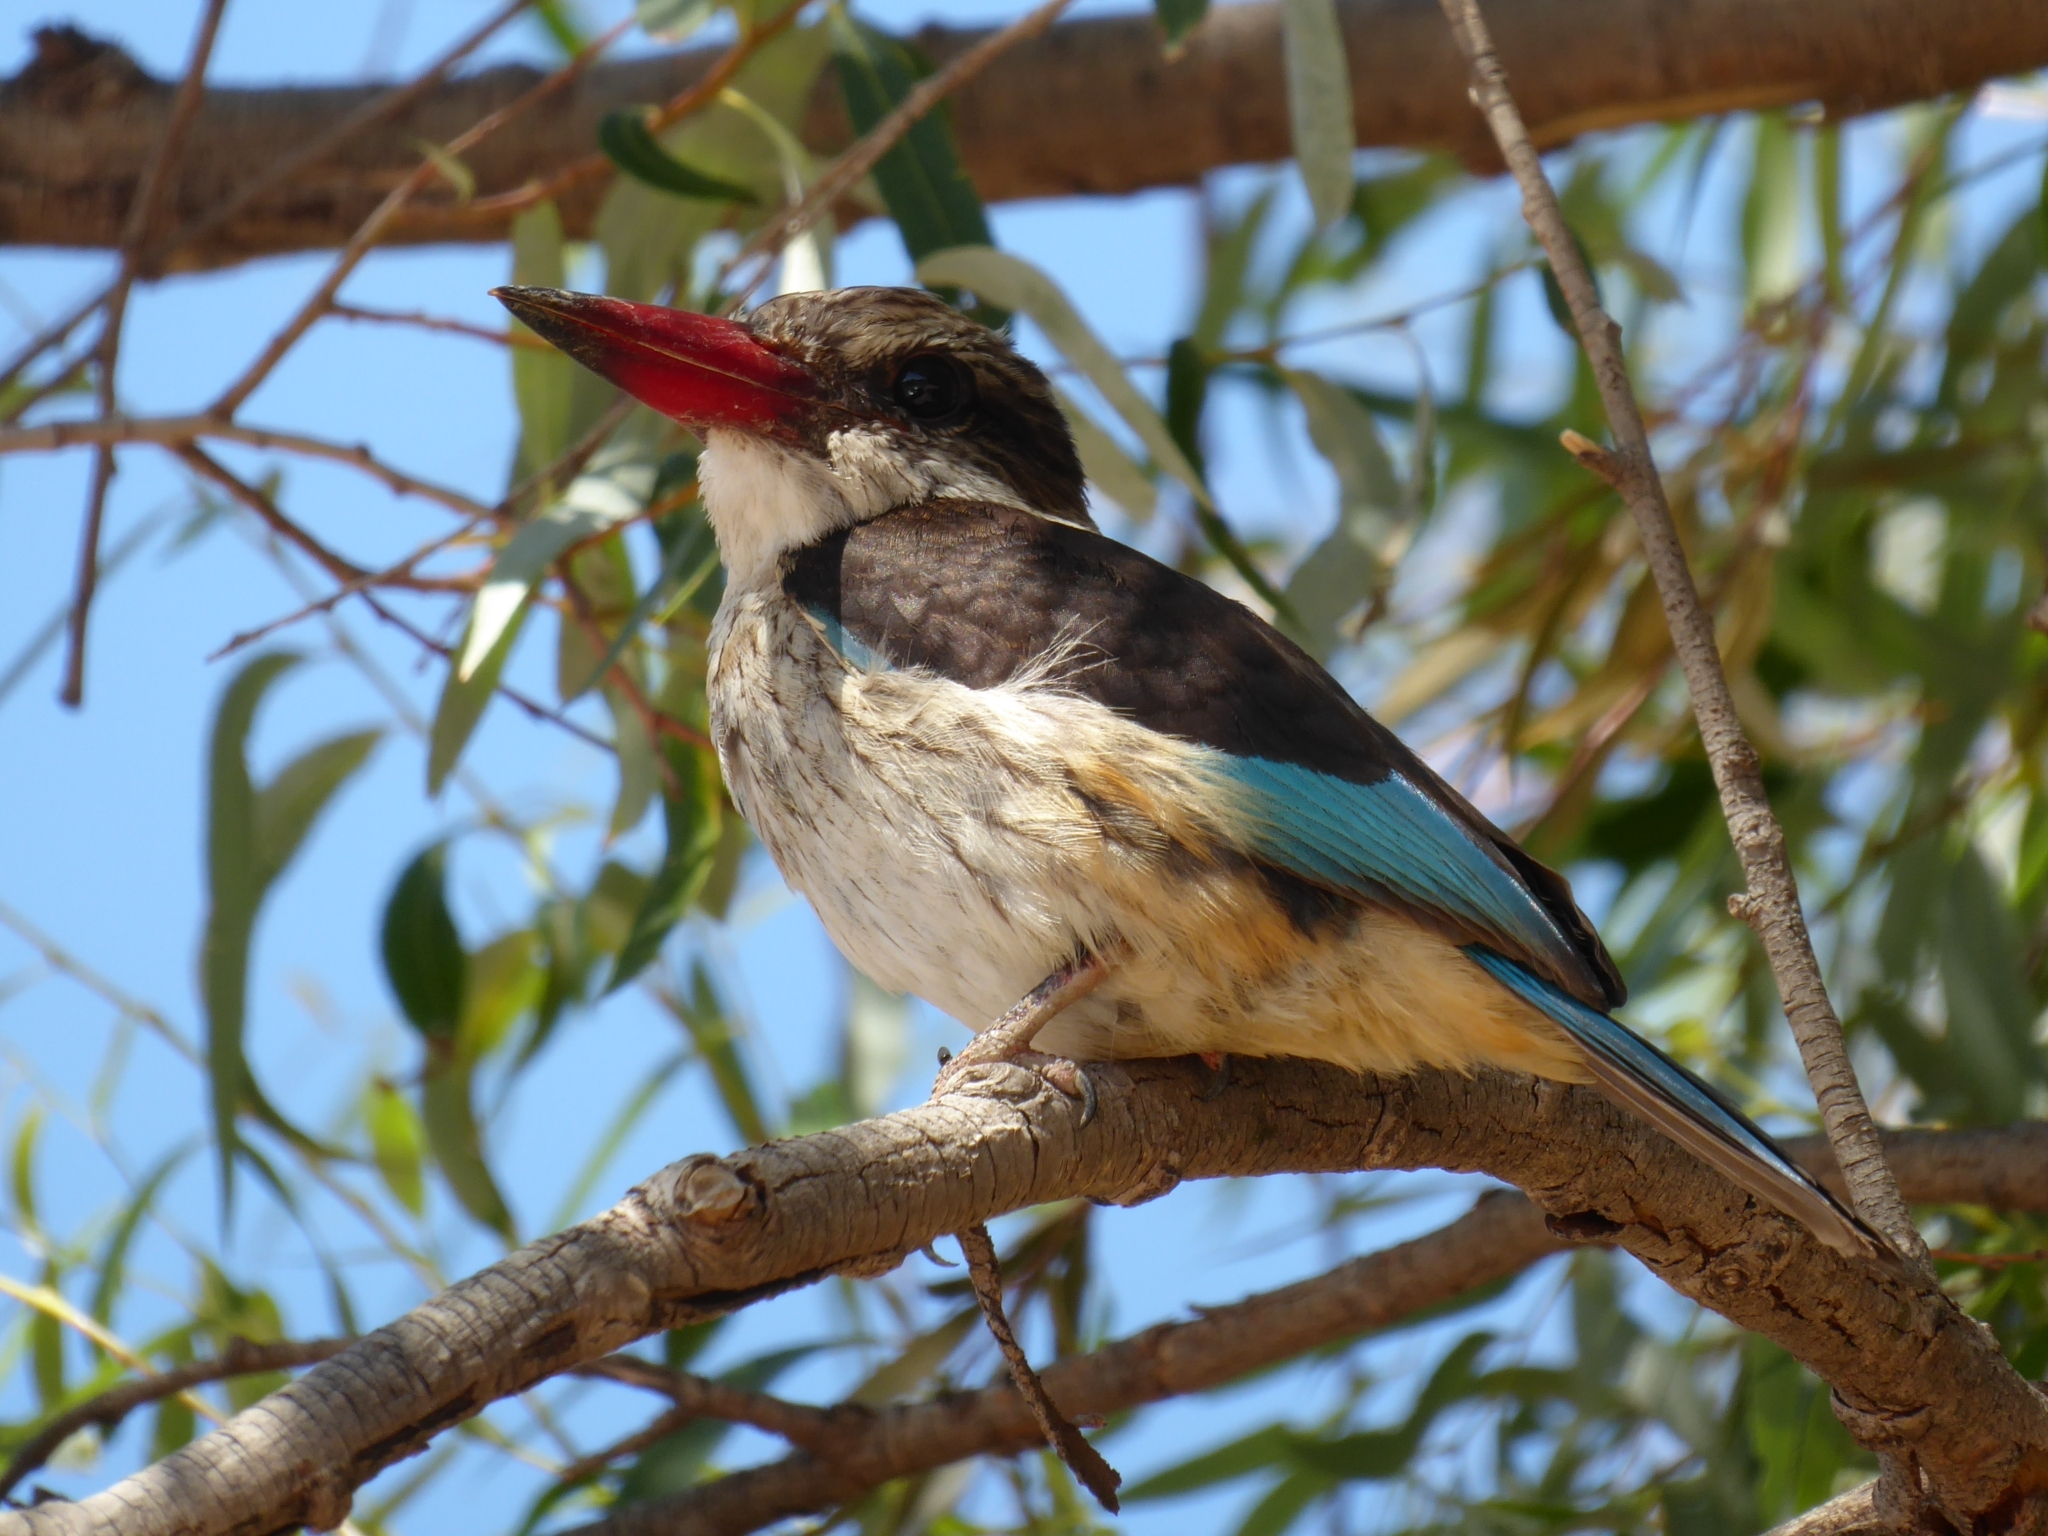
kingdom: Animalia
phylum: Chordata
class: Aves
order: Coraciiformes
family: Alcedinidae
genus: Halcyon
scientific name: Halcyon albiventris
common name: Brown-hooded kingfisher
